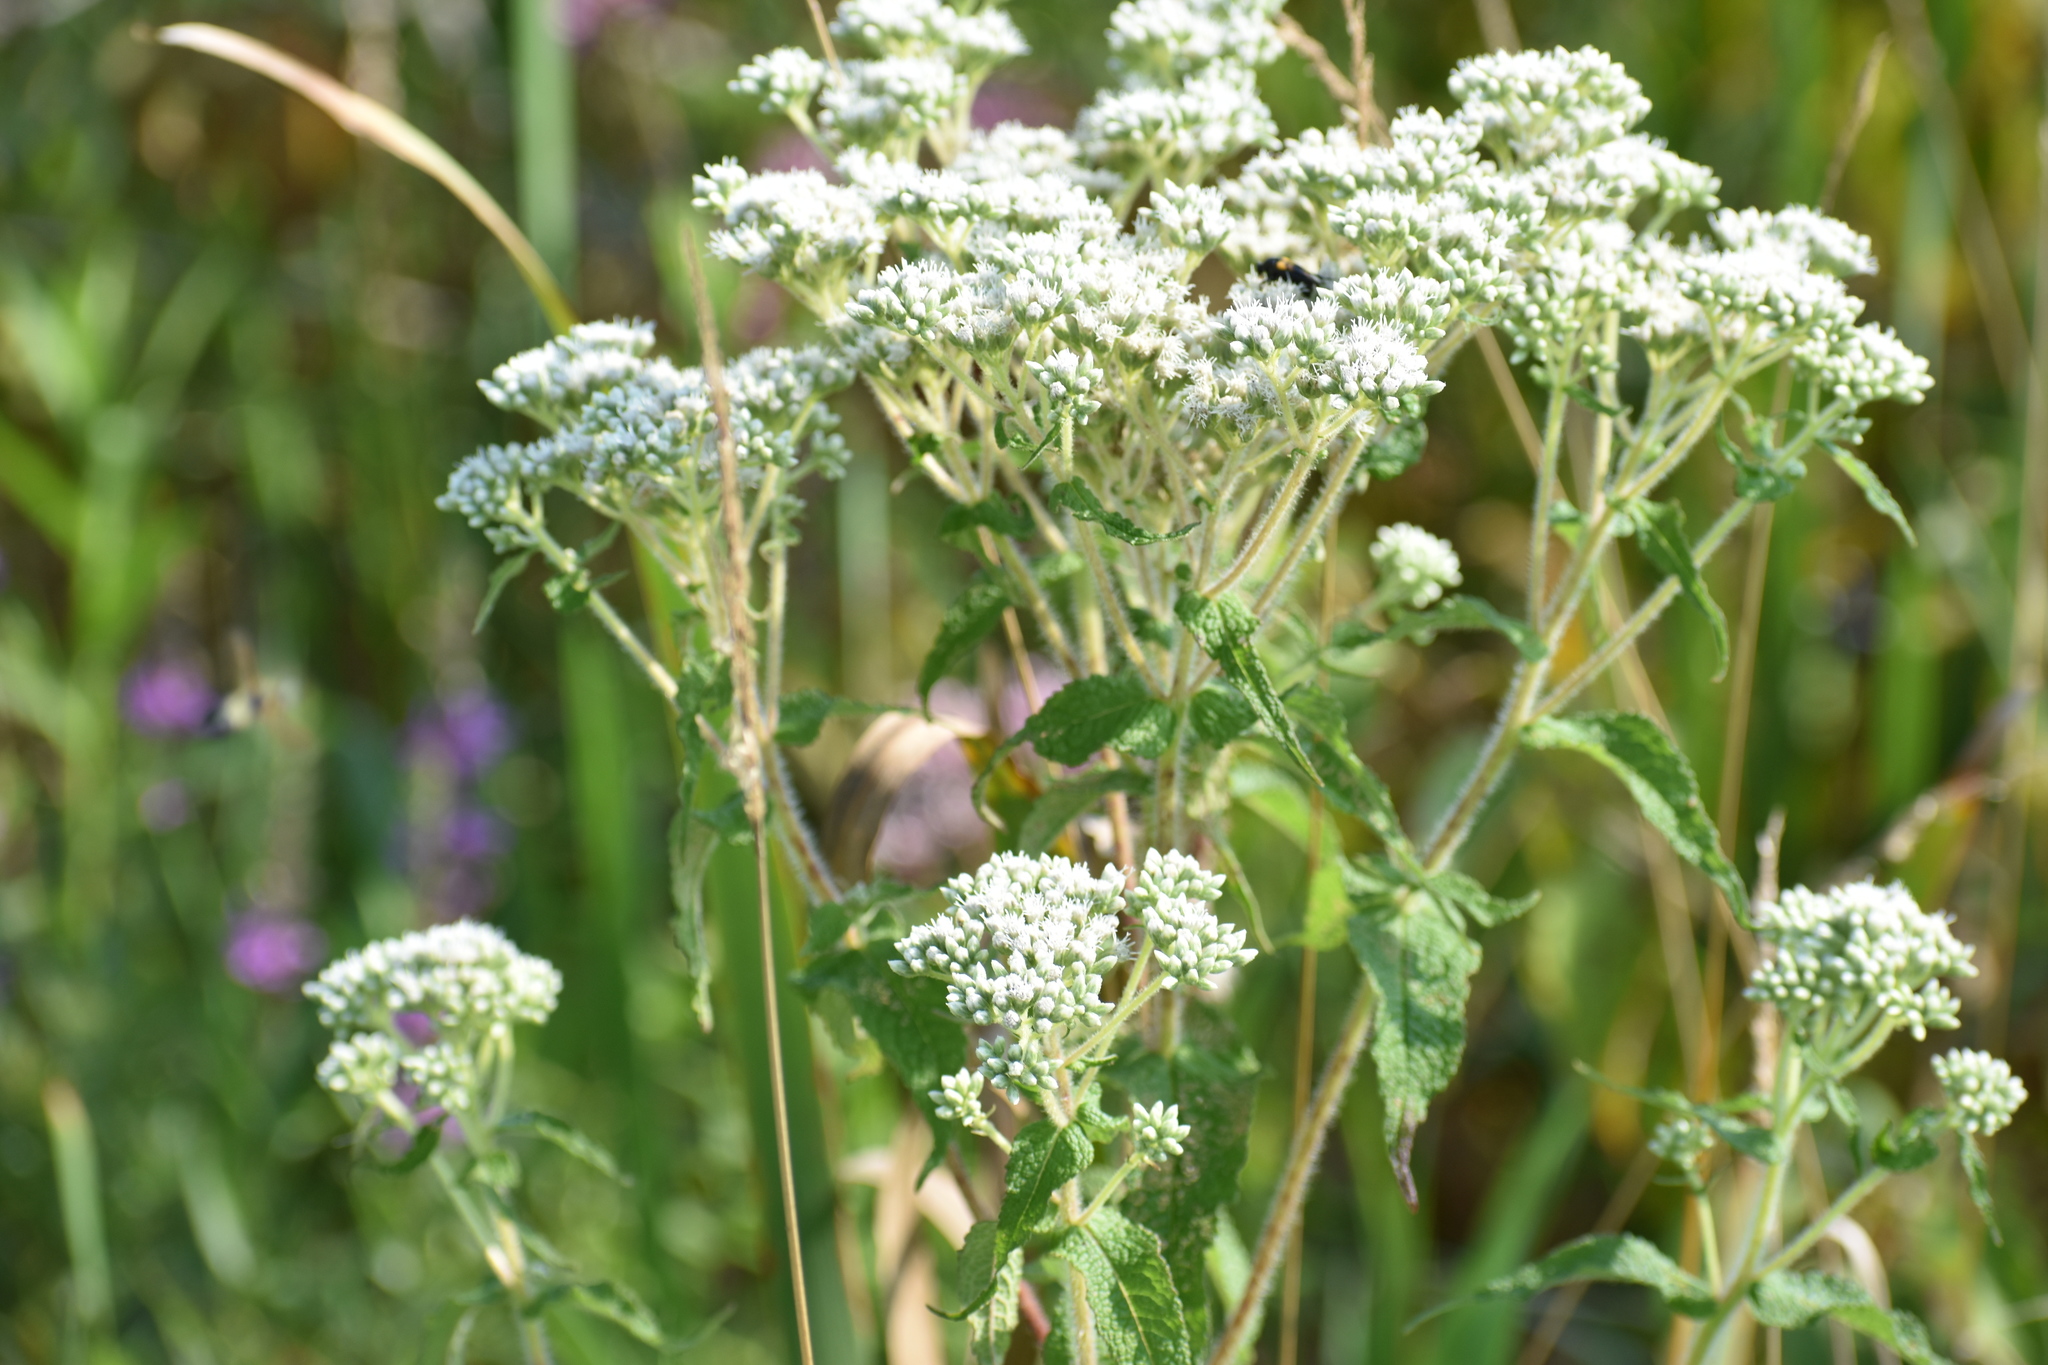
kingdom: Plantae
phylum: Tracheophyta
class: Magnoliopsida
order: Asterales
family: Asteraceae
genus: Eupatorium
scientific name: Eupatorium perfoliatum
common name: Boneset
